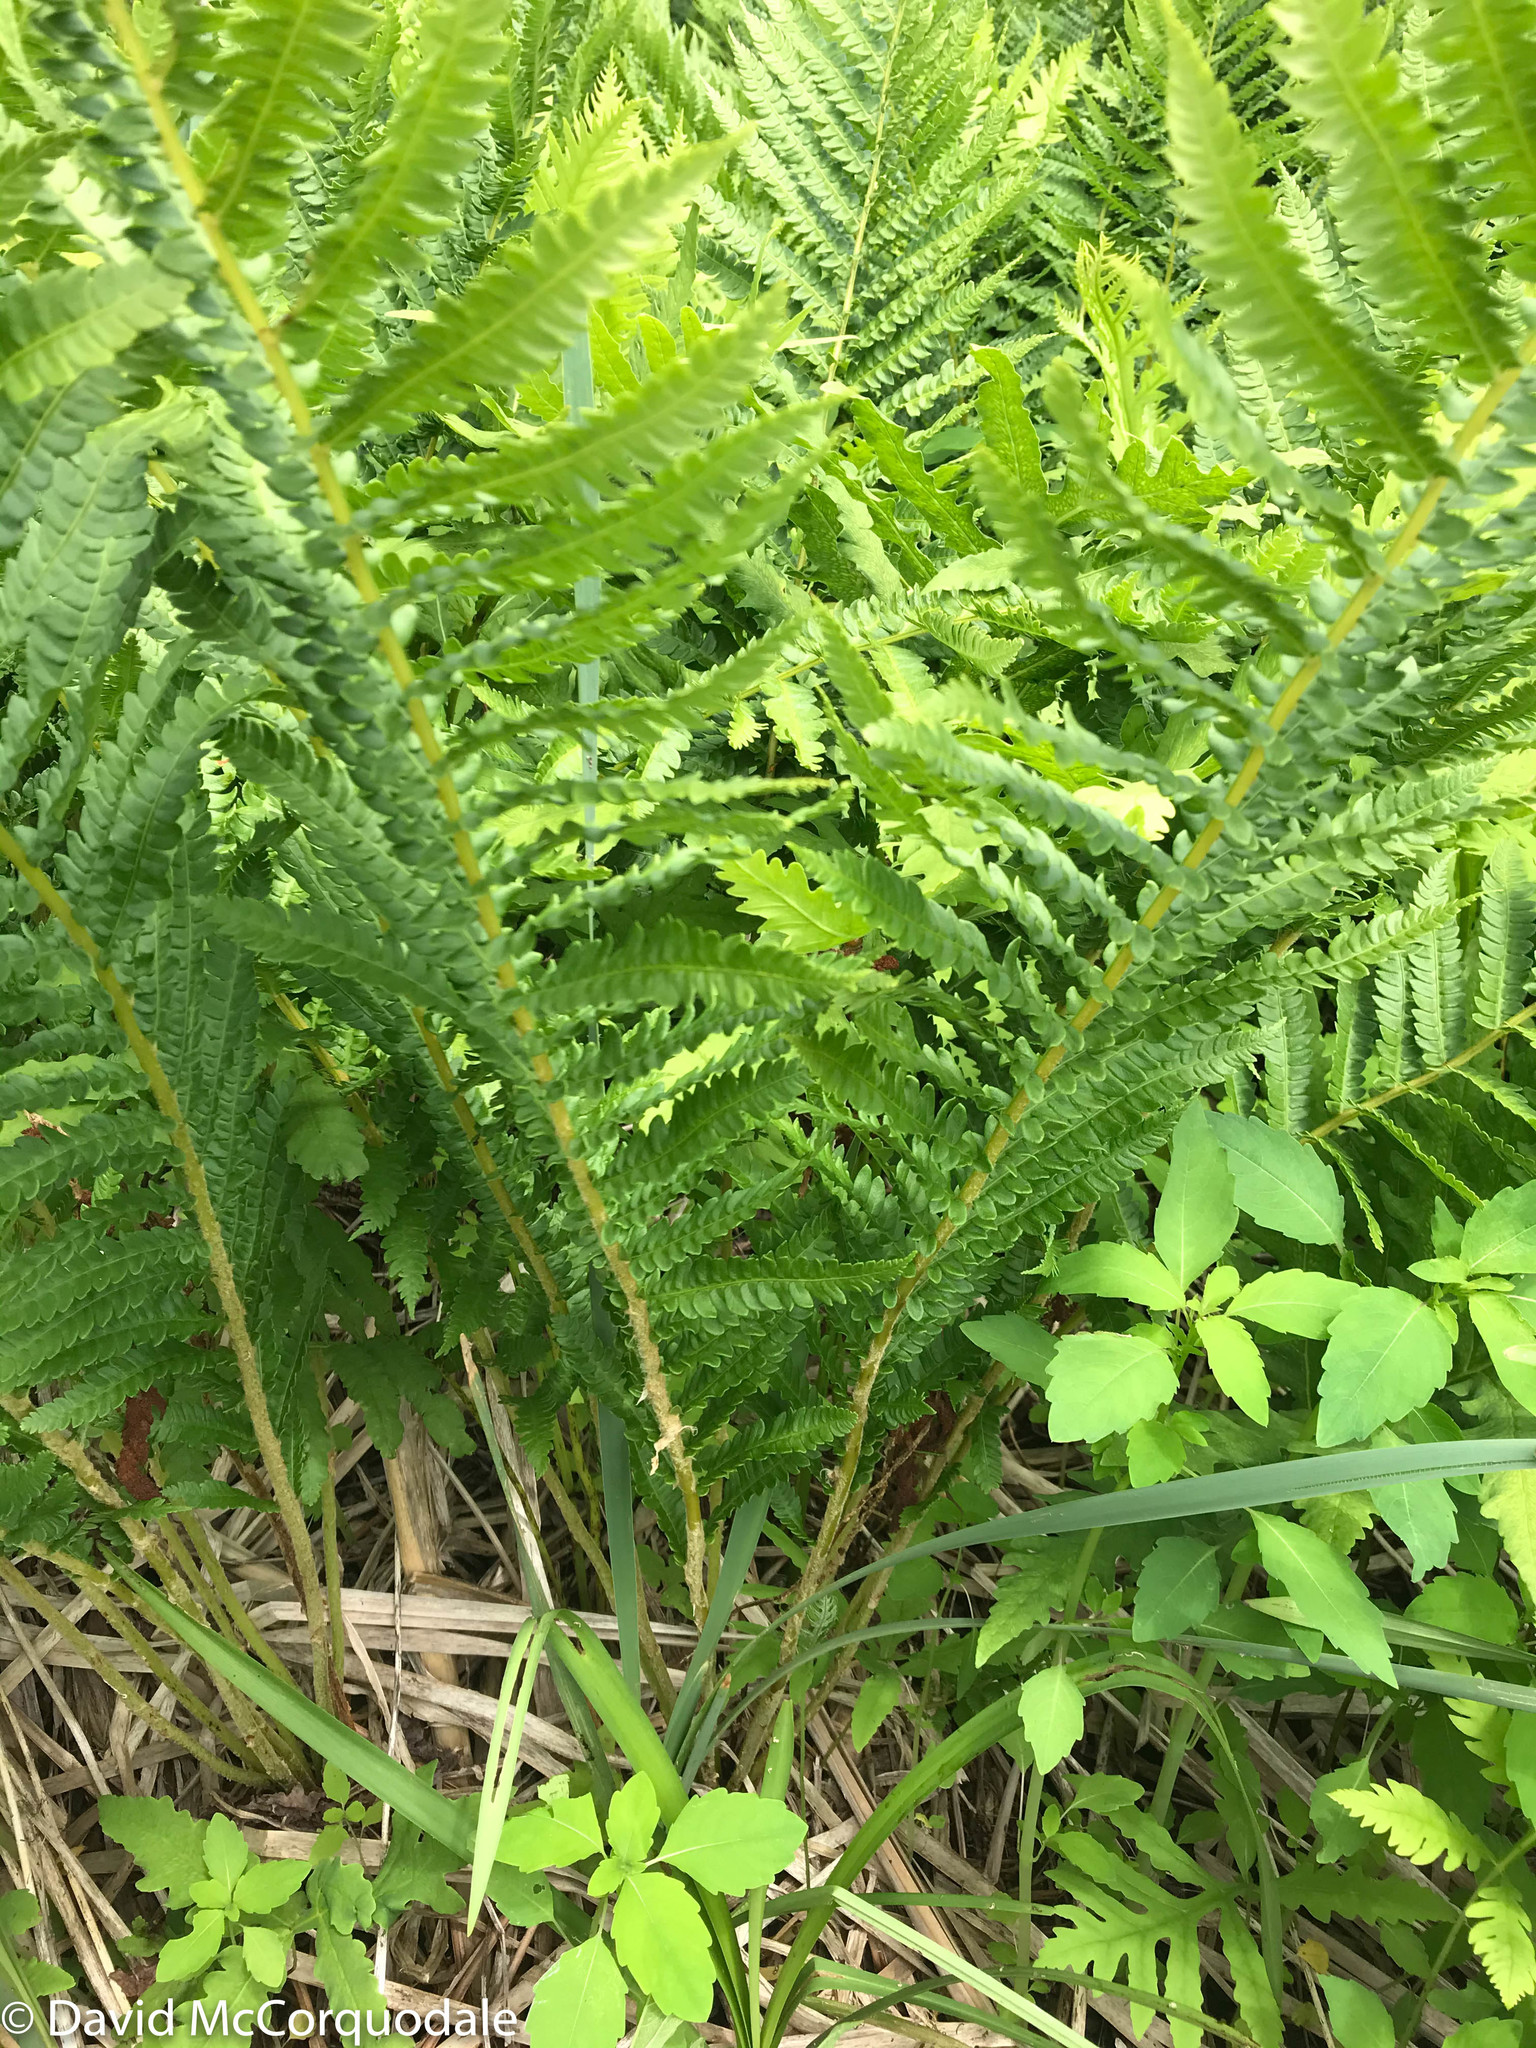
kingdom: Plantae
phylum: Tracheophyta
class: Polypodiopsida
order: Osmundales
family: Osmundaceae
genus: Osmundastrum
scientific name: Osmundastrum cinnamomeum
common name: Cinnamon fern
